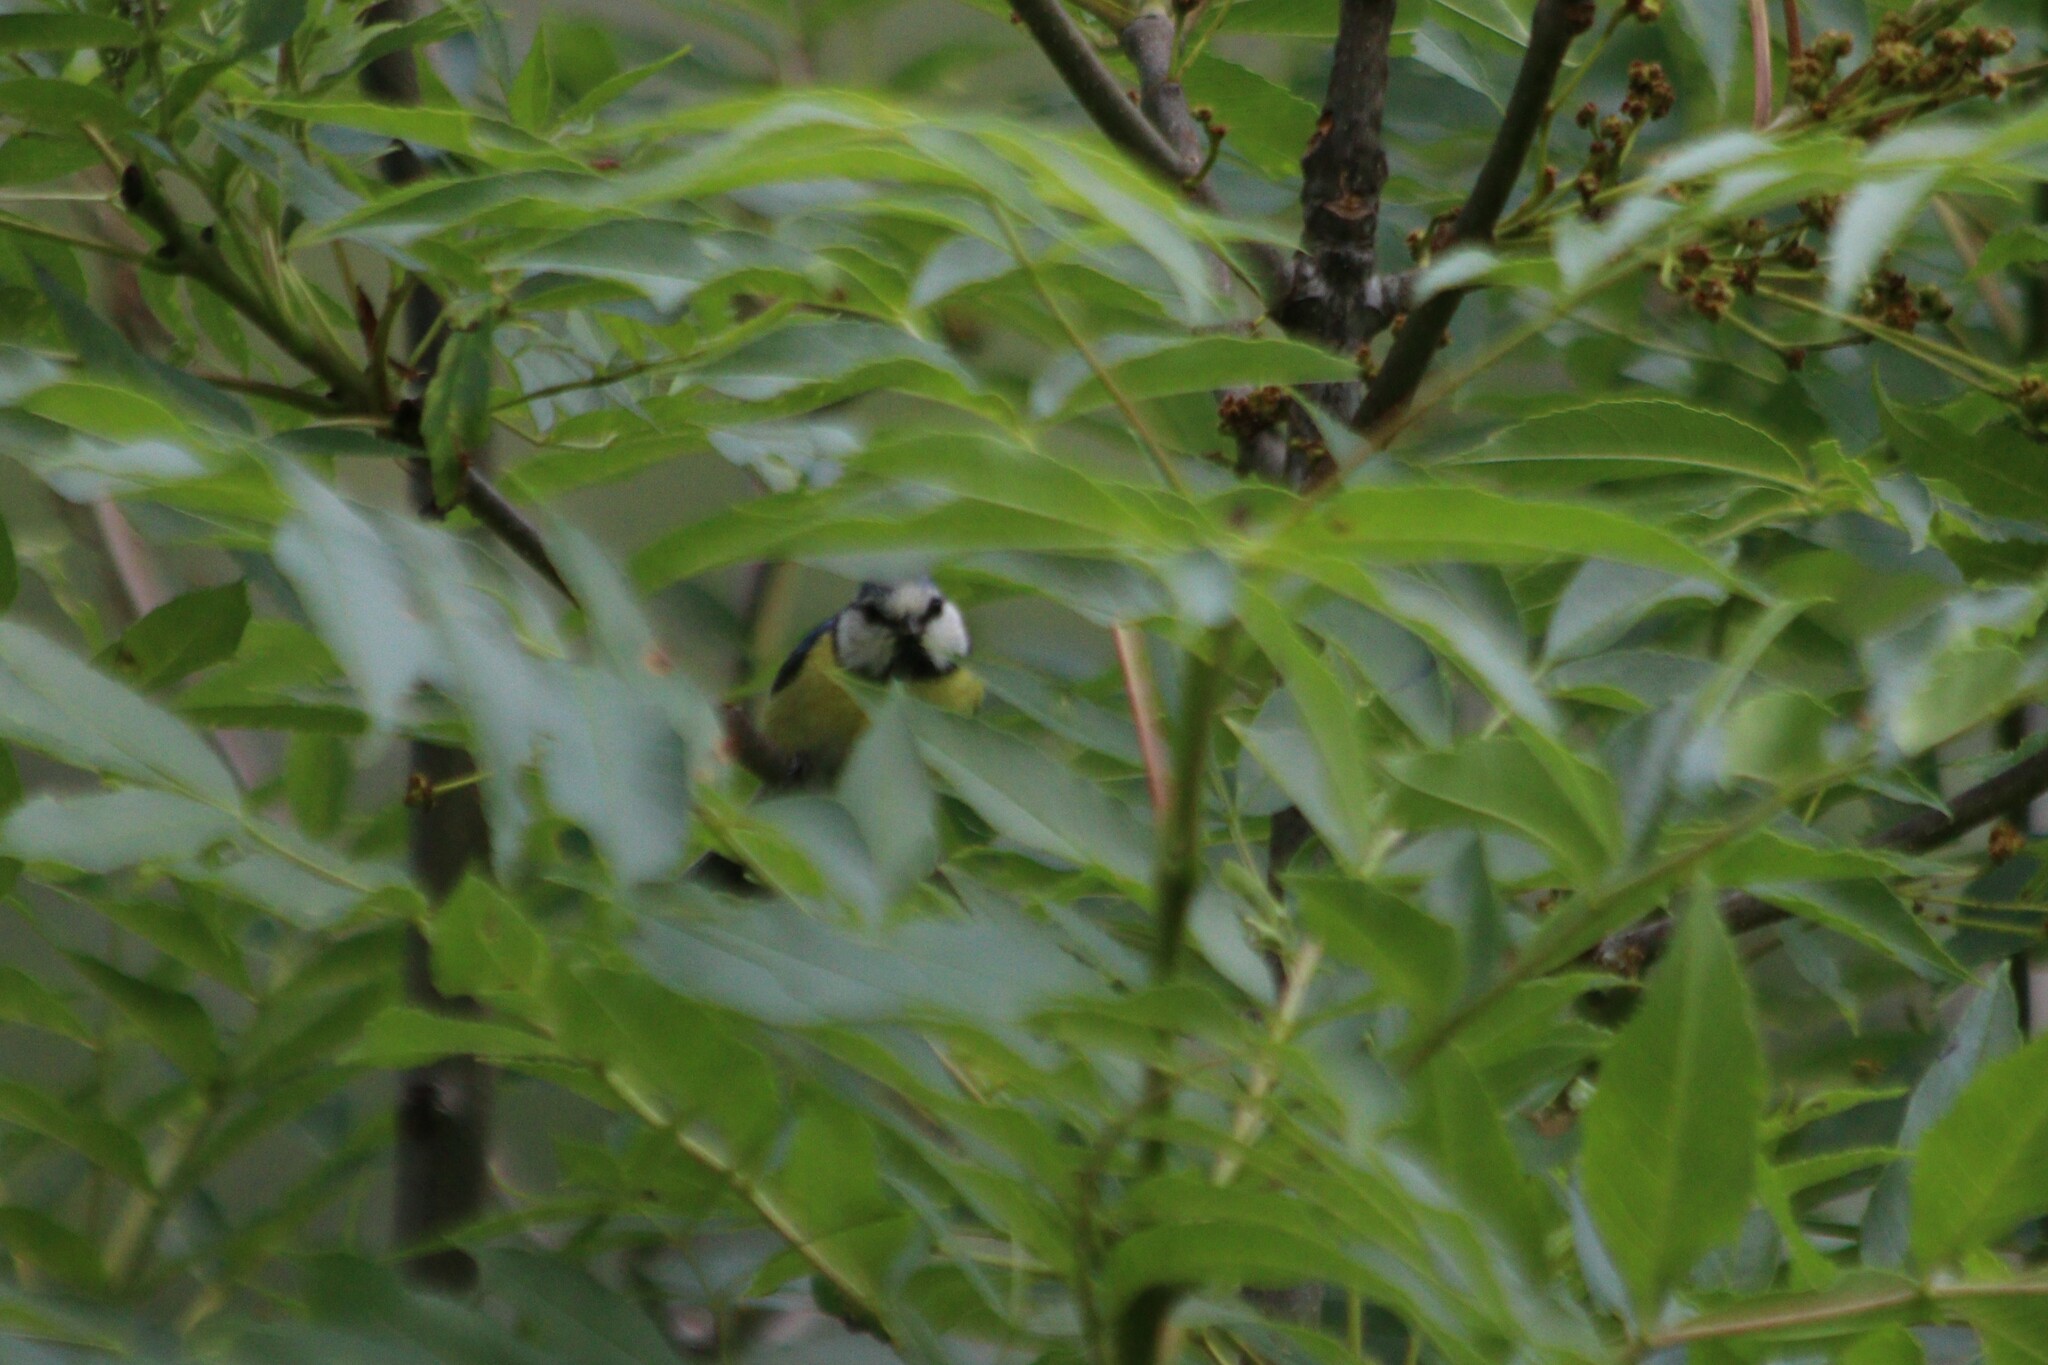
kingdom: Animalia
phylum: Chordata
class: Aves
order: Passeriformes
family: Paridae
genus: Cyanistes
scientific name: Cyanistes caeruleus
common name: Eurasian blue tit
